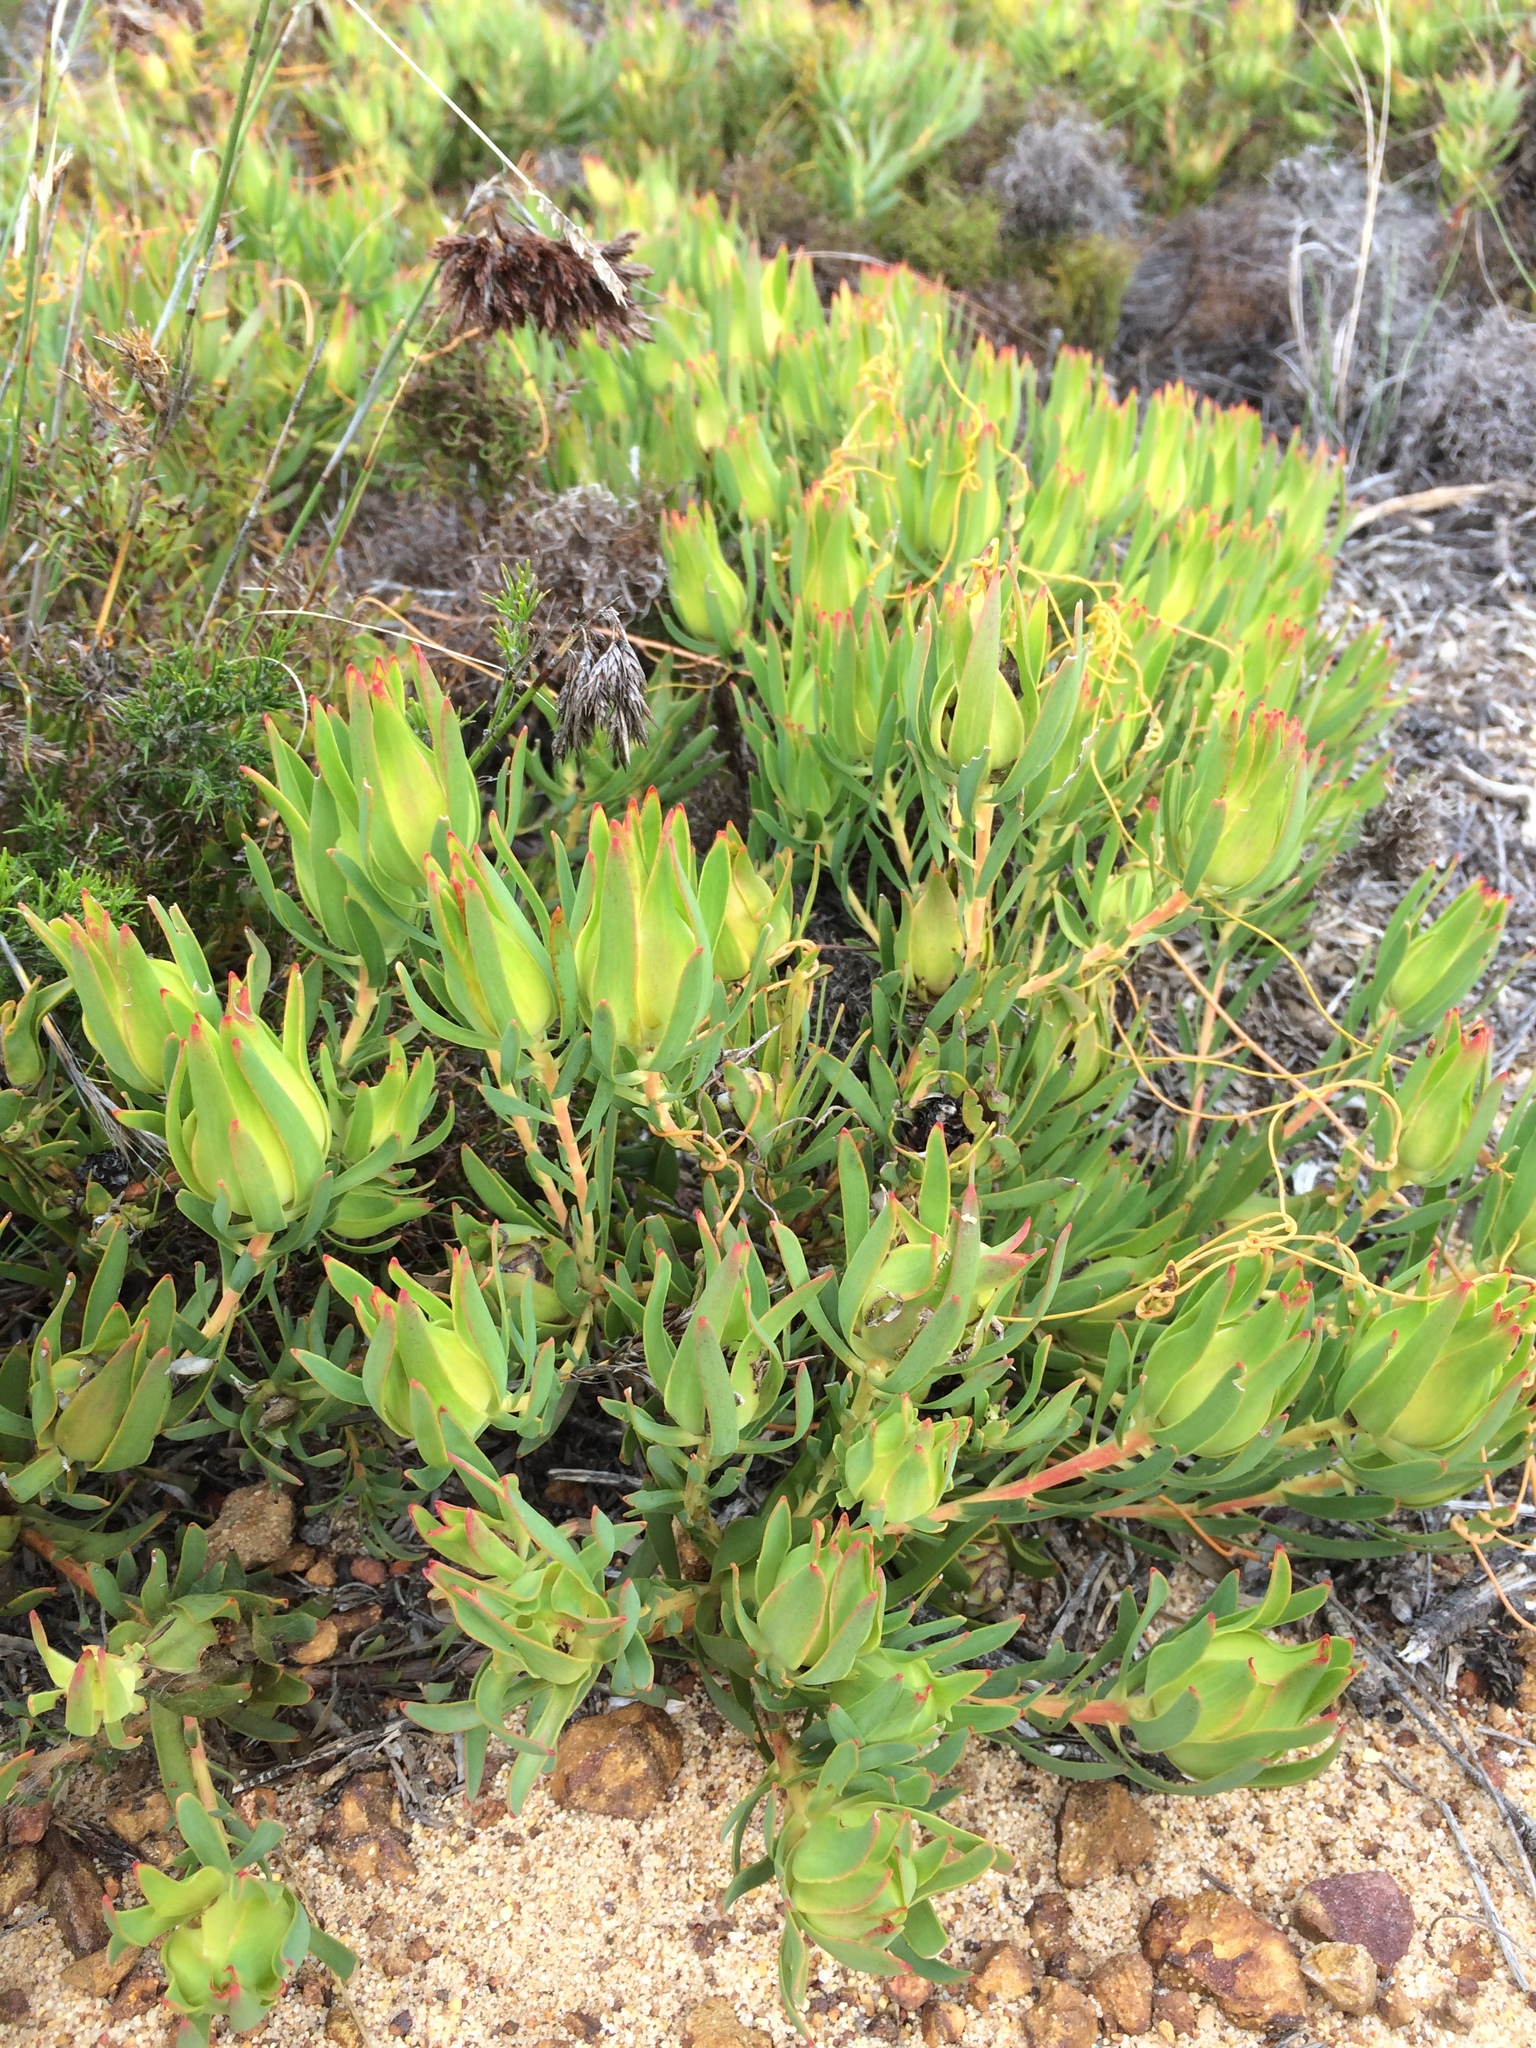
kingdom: Plantae
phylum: Tracheophyta
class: Magnoliopsida
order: Proteales
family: Proteaceae
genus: Leucadendron
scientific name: Leucadendron salignum
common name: Common sunshine conebush
